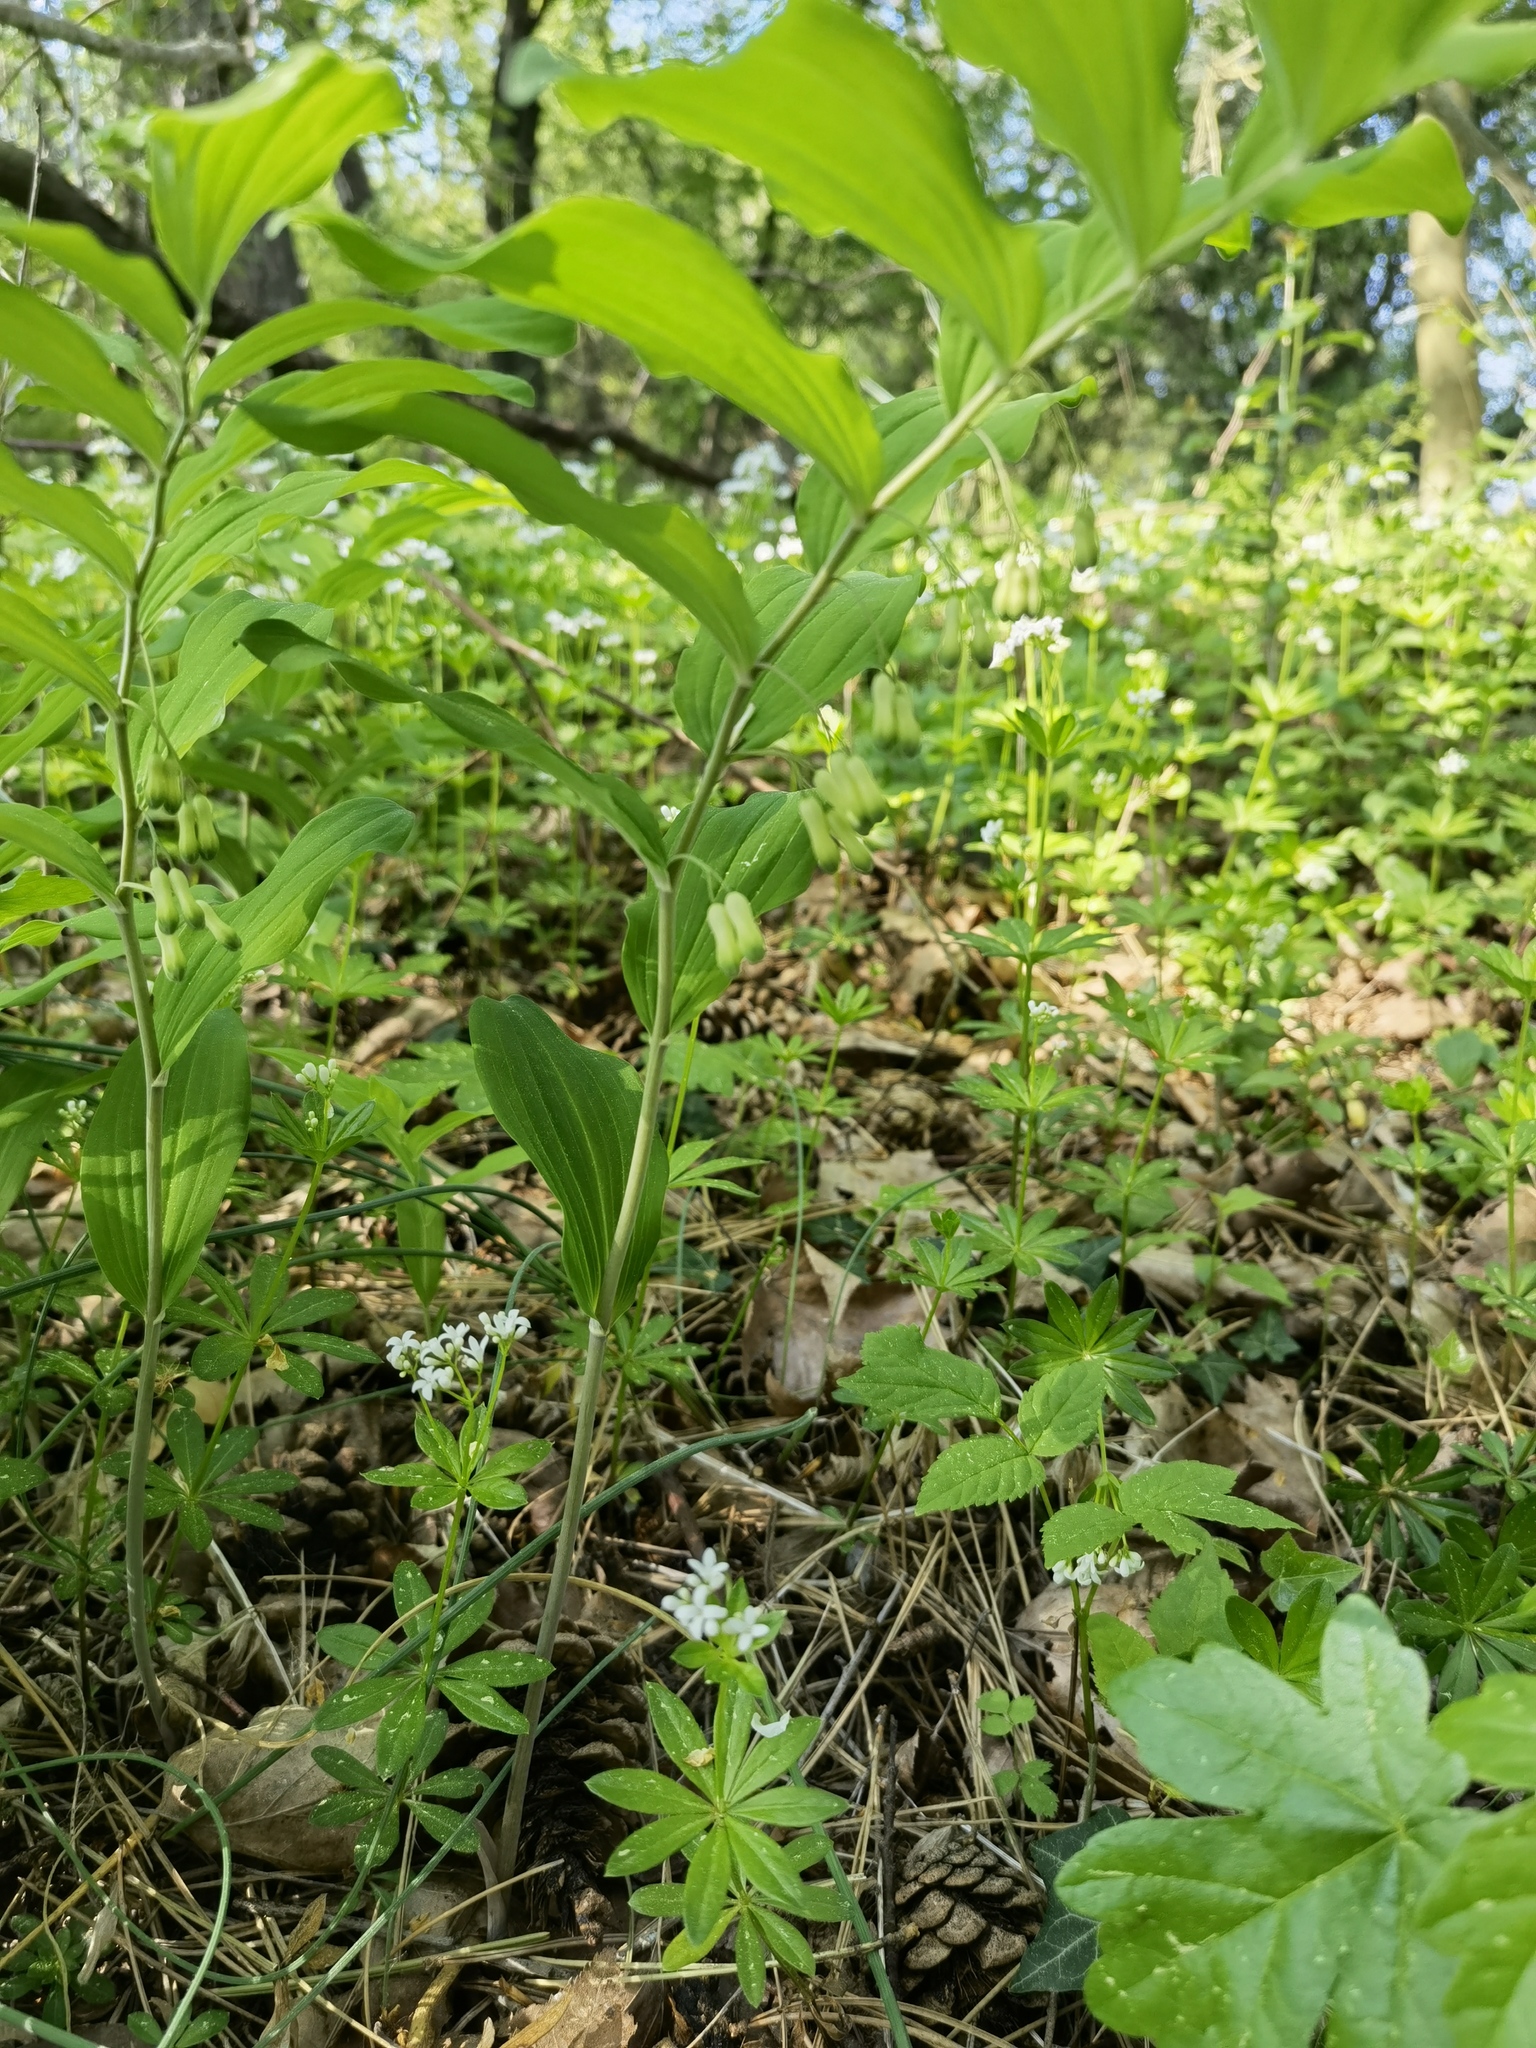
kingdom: Plantae
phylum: Tracheophyta
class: Liliopsida
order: Asparagales
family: Asparagaceae
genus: Polygonatum
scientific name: Polygonatum multiflorum
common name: Solomon's-seal
